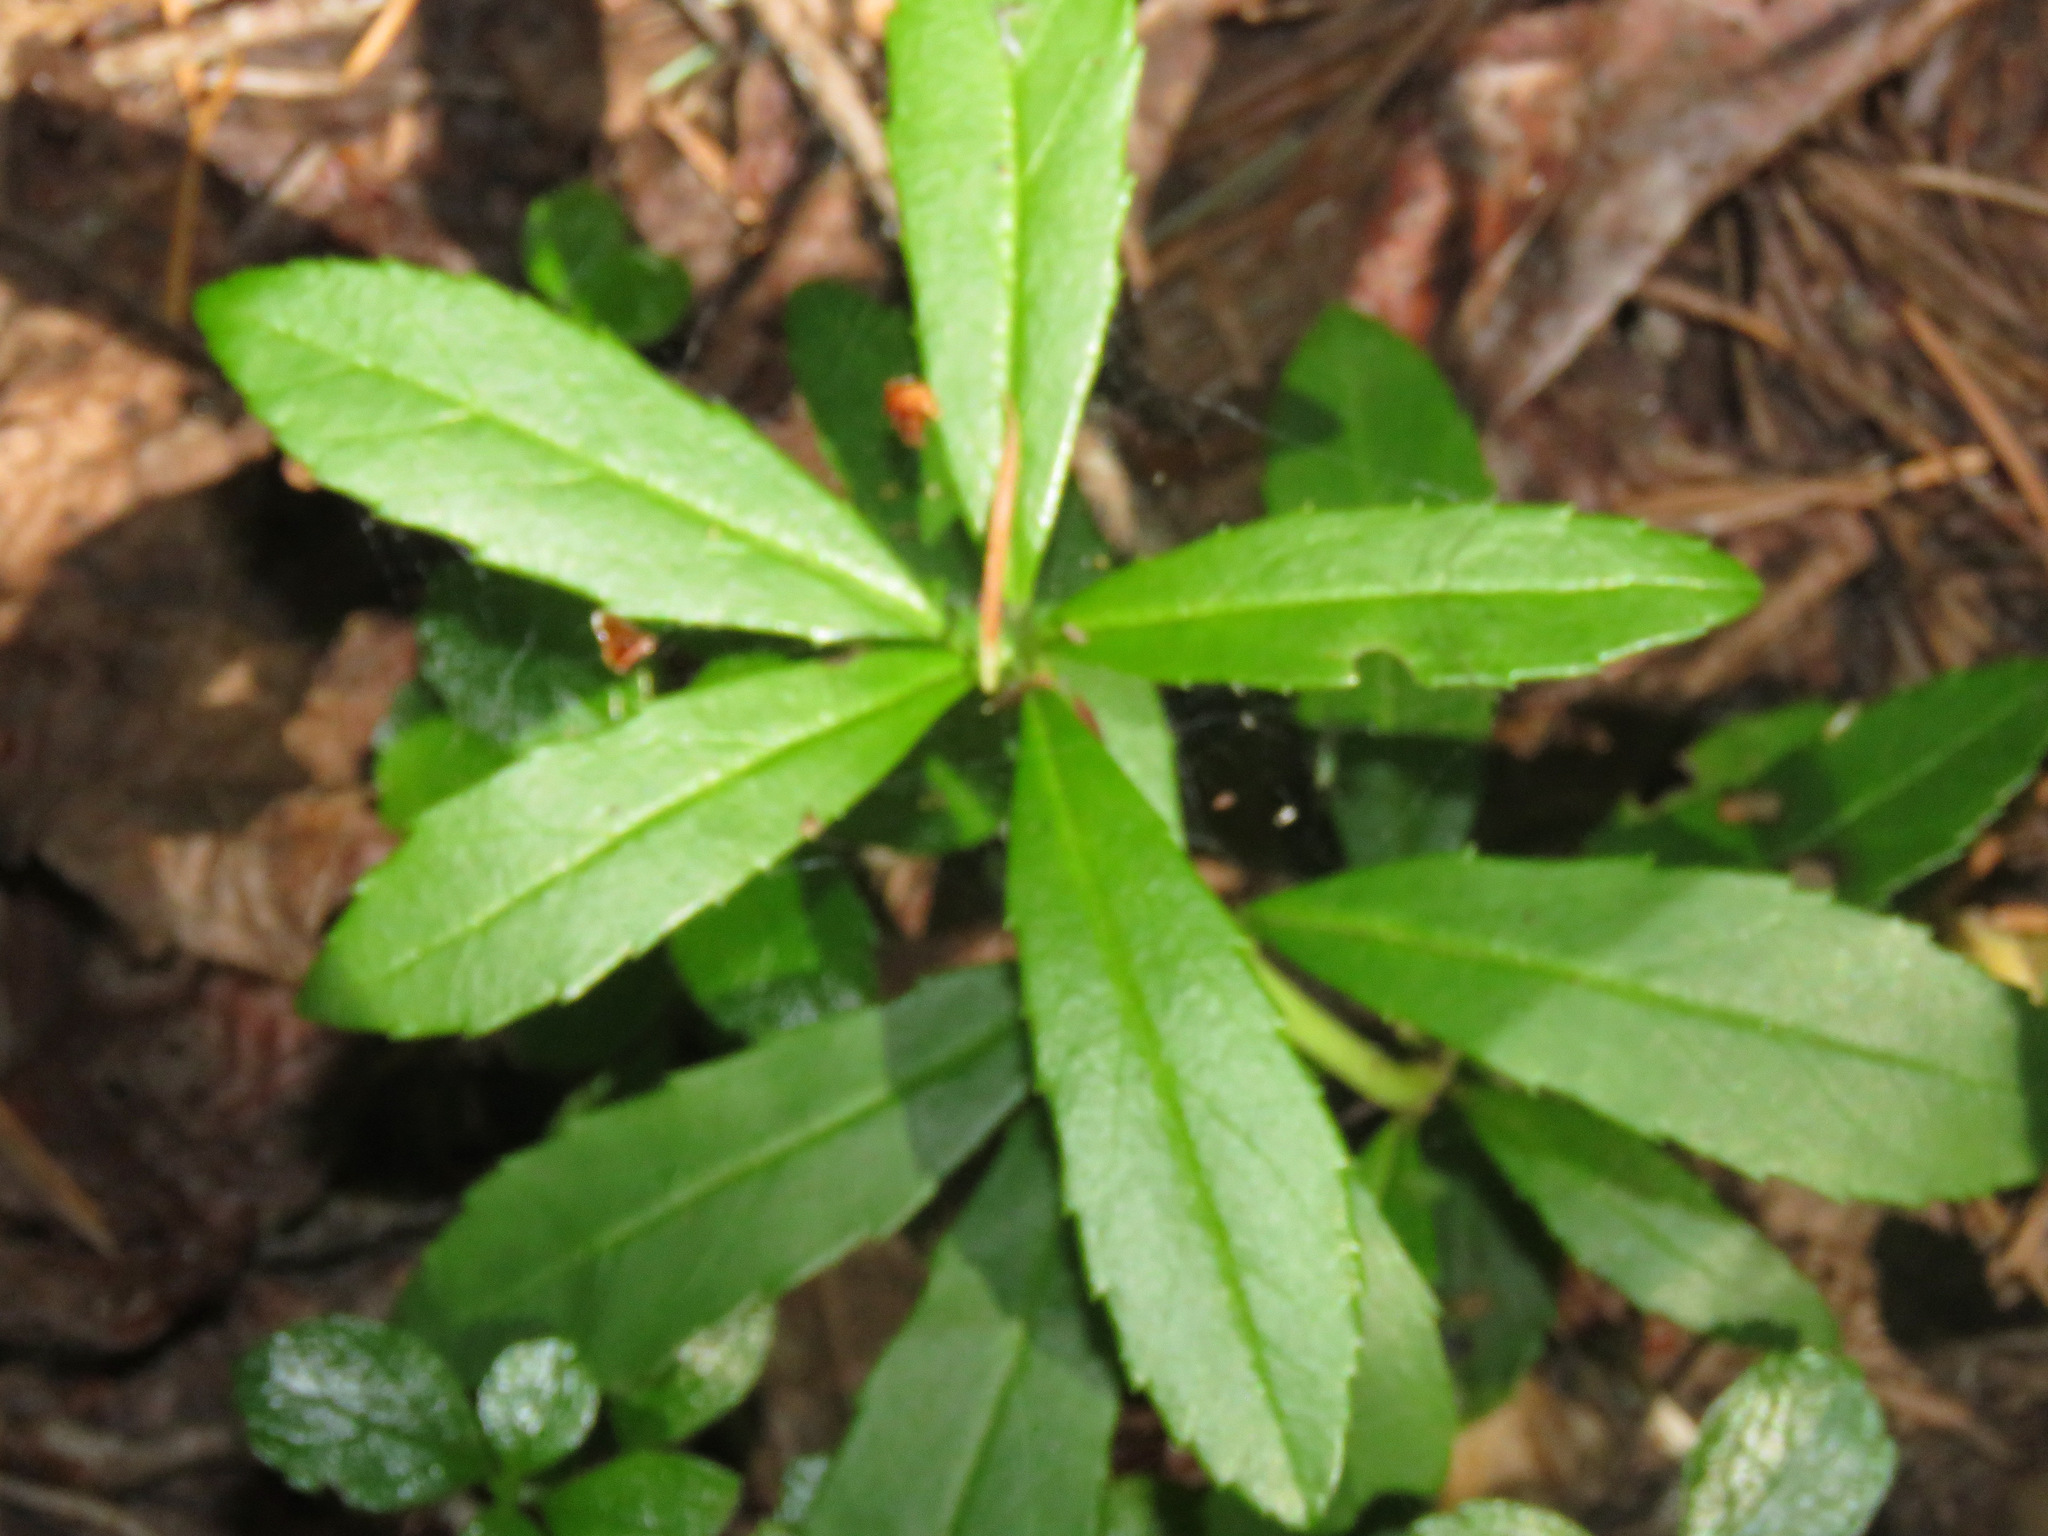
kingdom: Plantae
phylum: Tracheophyta
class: Magnoliopsida
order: Ericales
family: Ericaceae
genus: Chimaphila
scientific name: Chimaphila umbellata
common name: Pipsissewa
